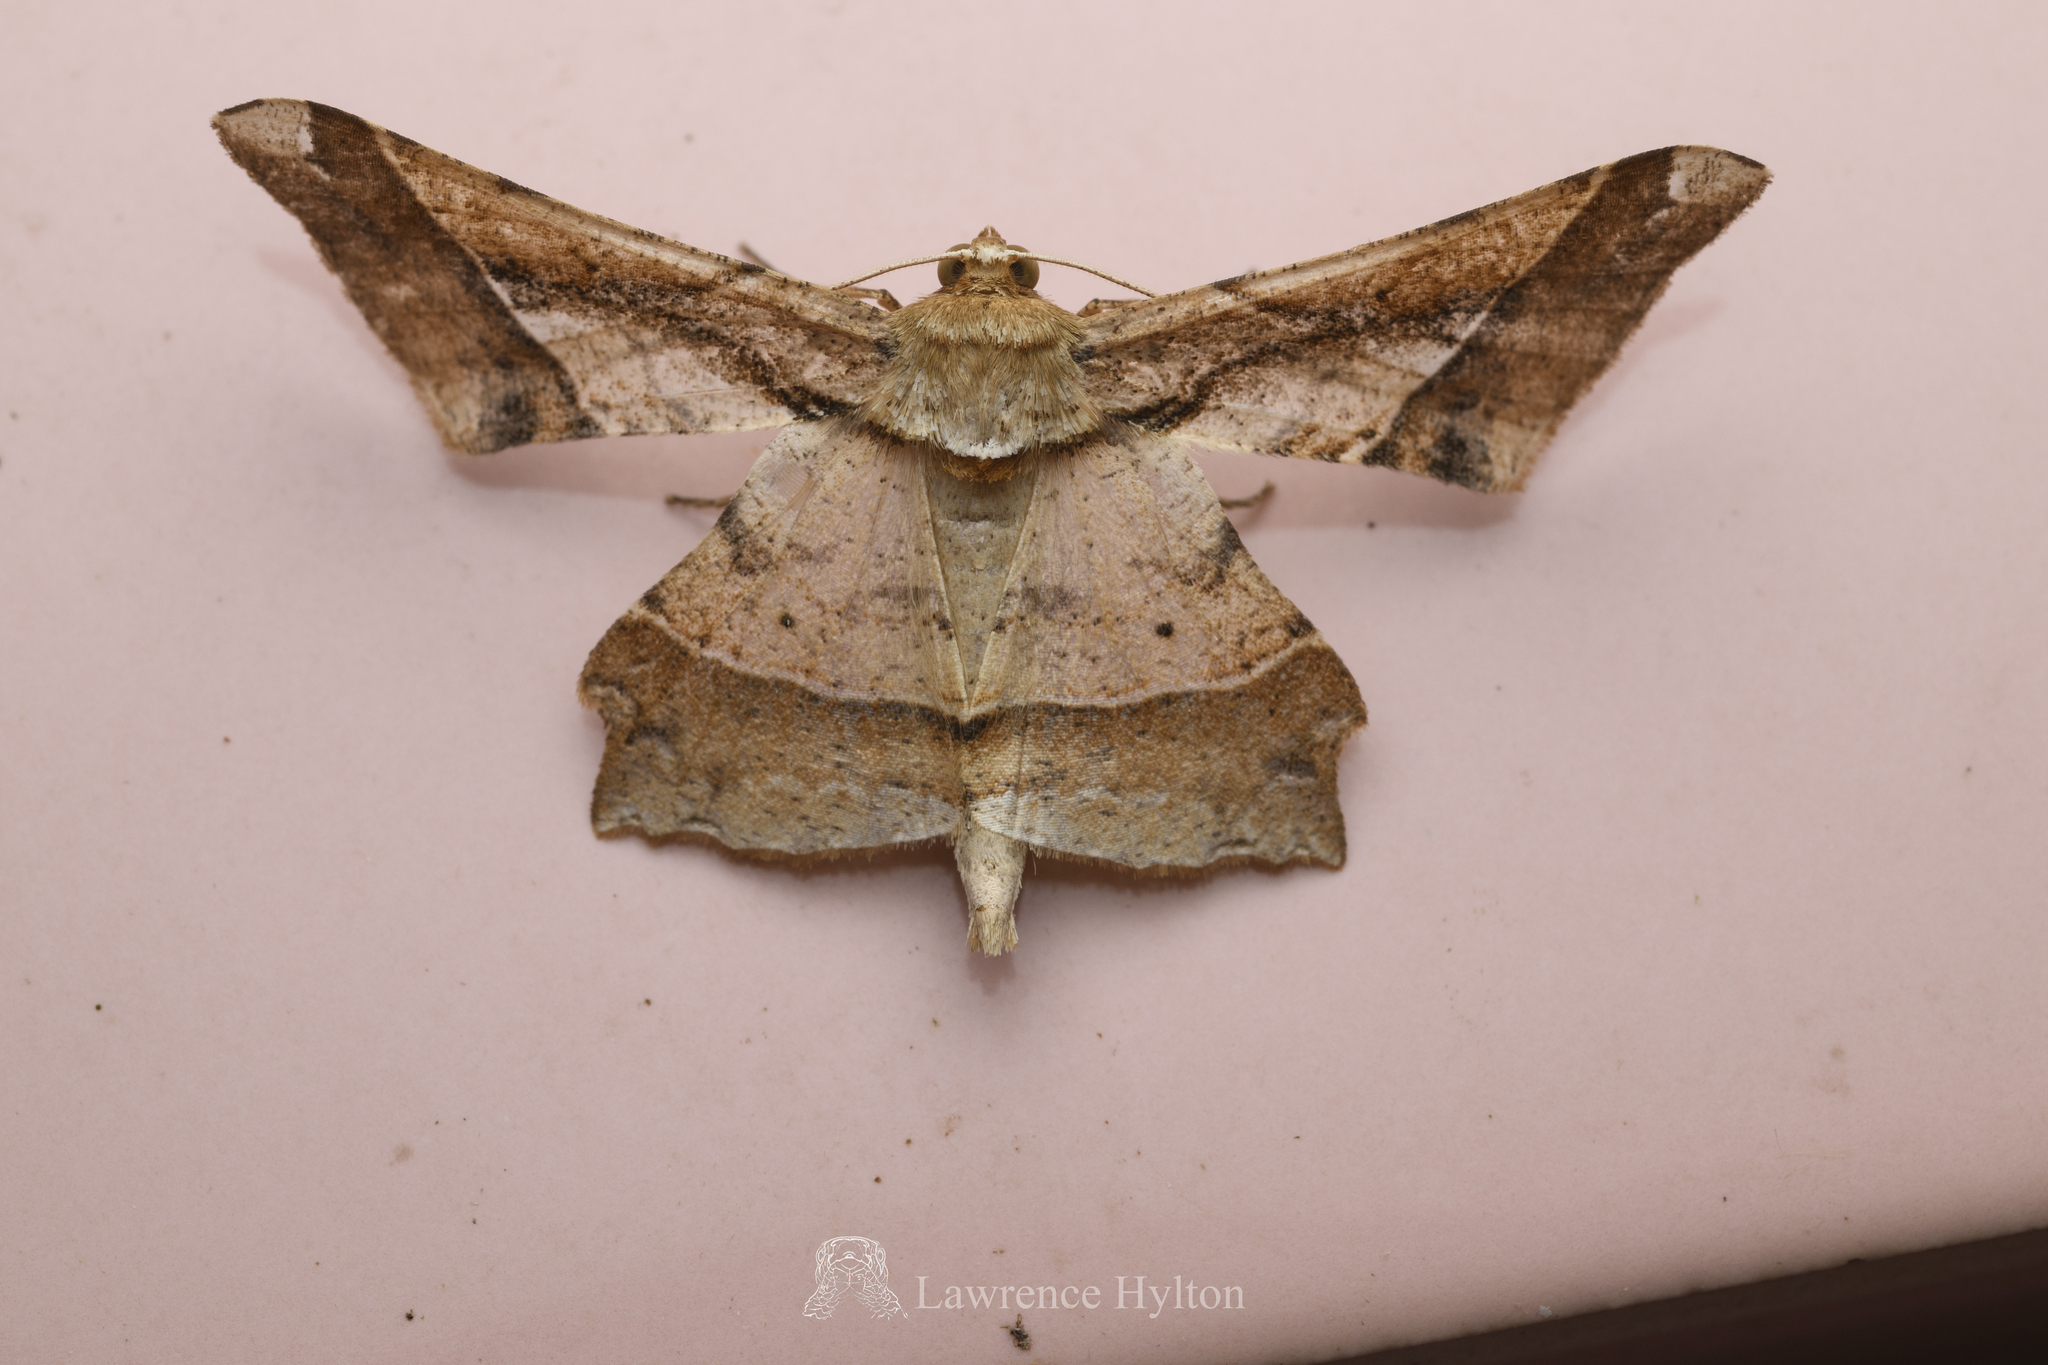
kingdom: Animalia
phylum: Arthropoda
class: Insecta
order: Lepidoptera
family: Geometridae
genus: Krananda
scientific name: Krananda latimarginaria
